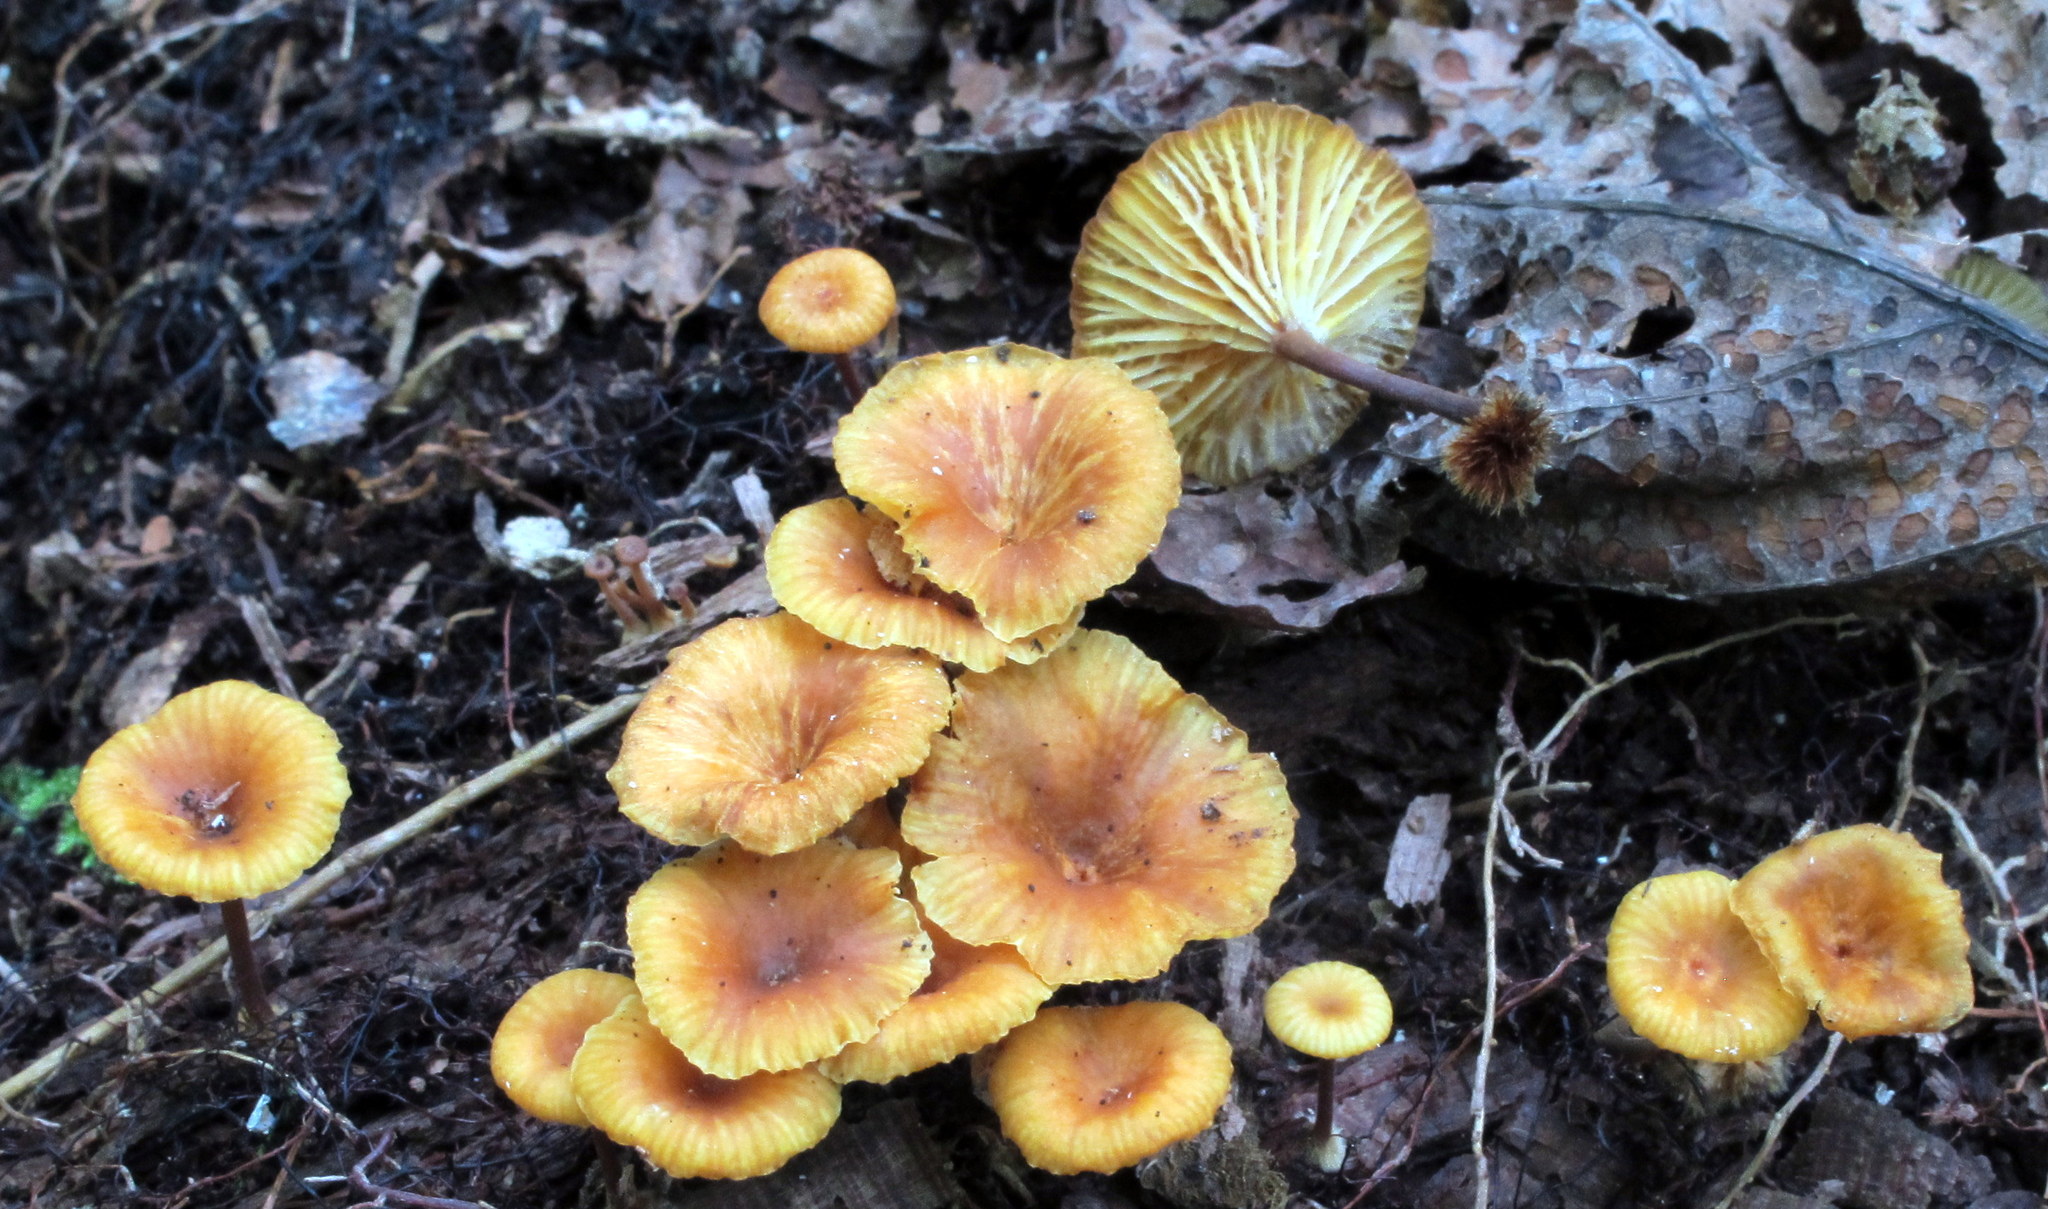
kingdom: Fungi
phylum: Basidiomycota
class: Agaricomycetes
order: Agaricales
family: Mycenaceae
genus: Xeromphalina
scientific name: Xeromphalina kauffmanii
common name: Cross-veined troop mushroom
